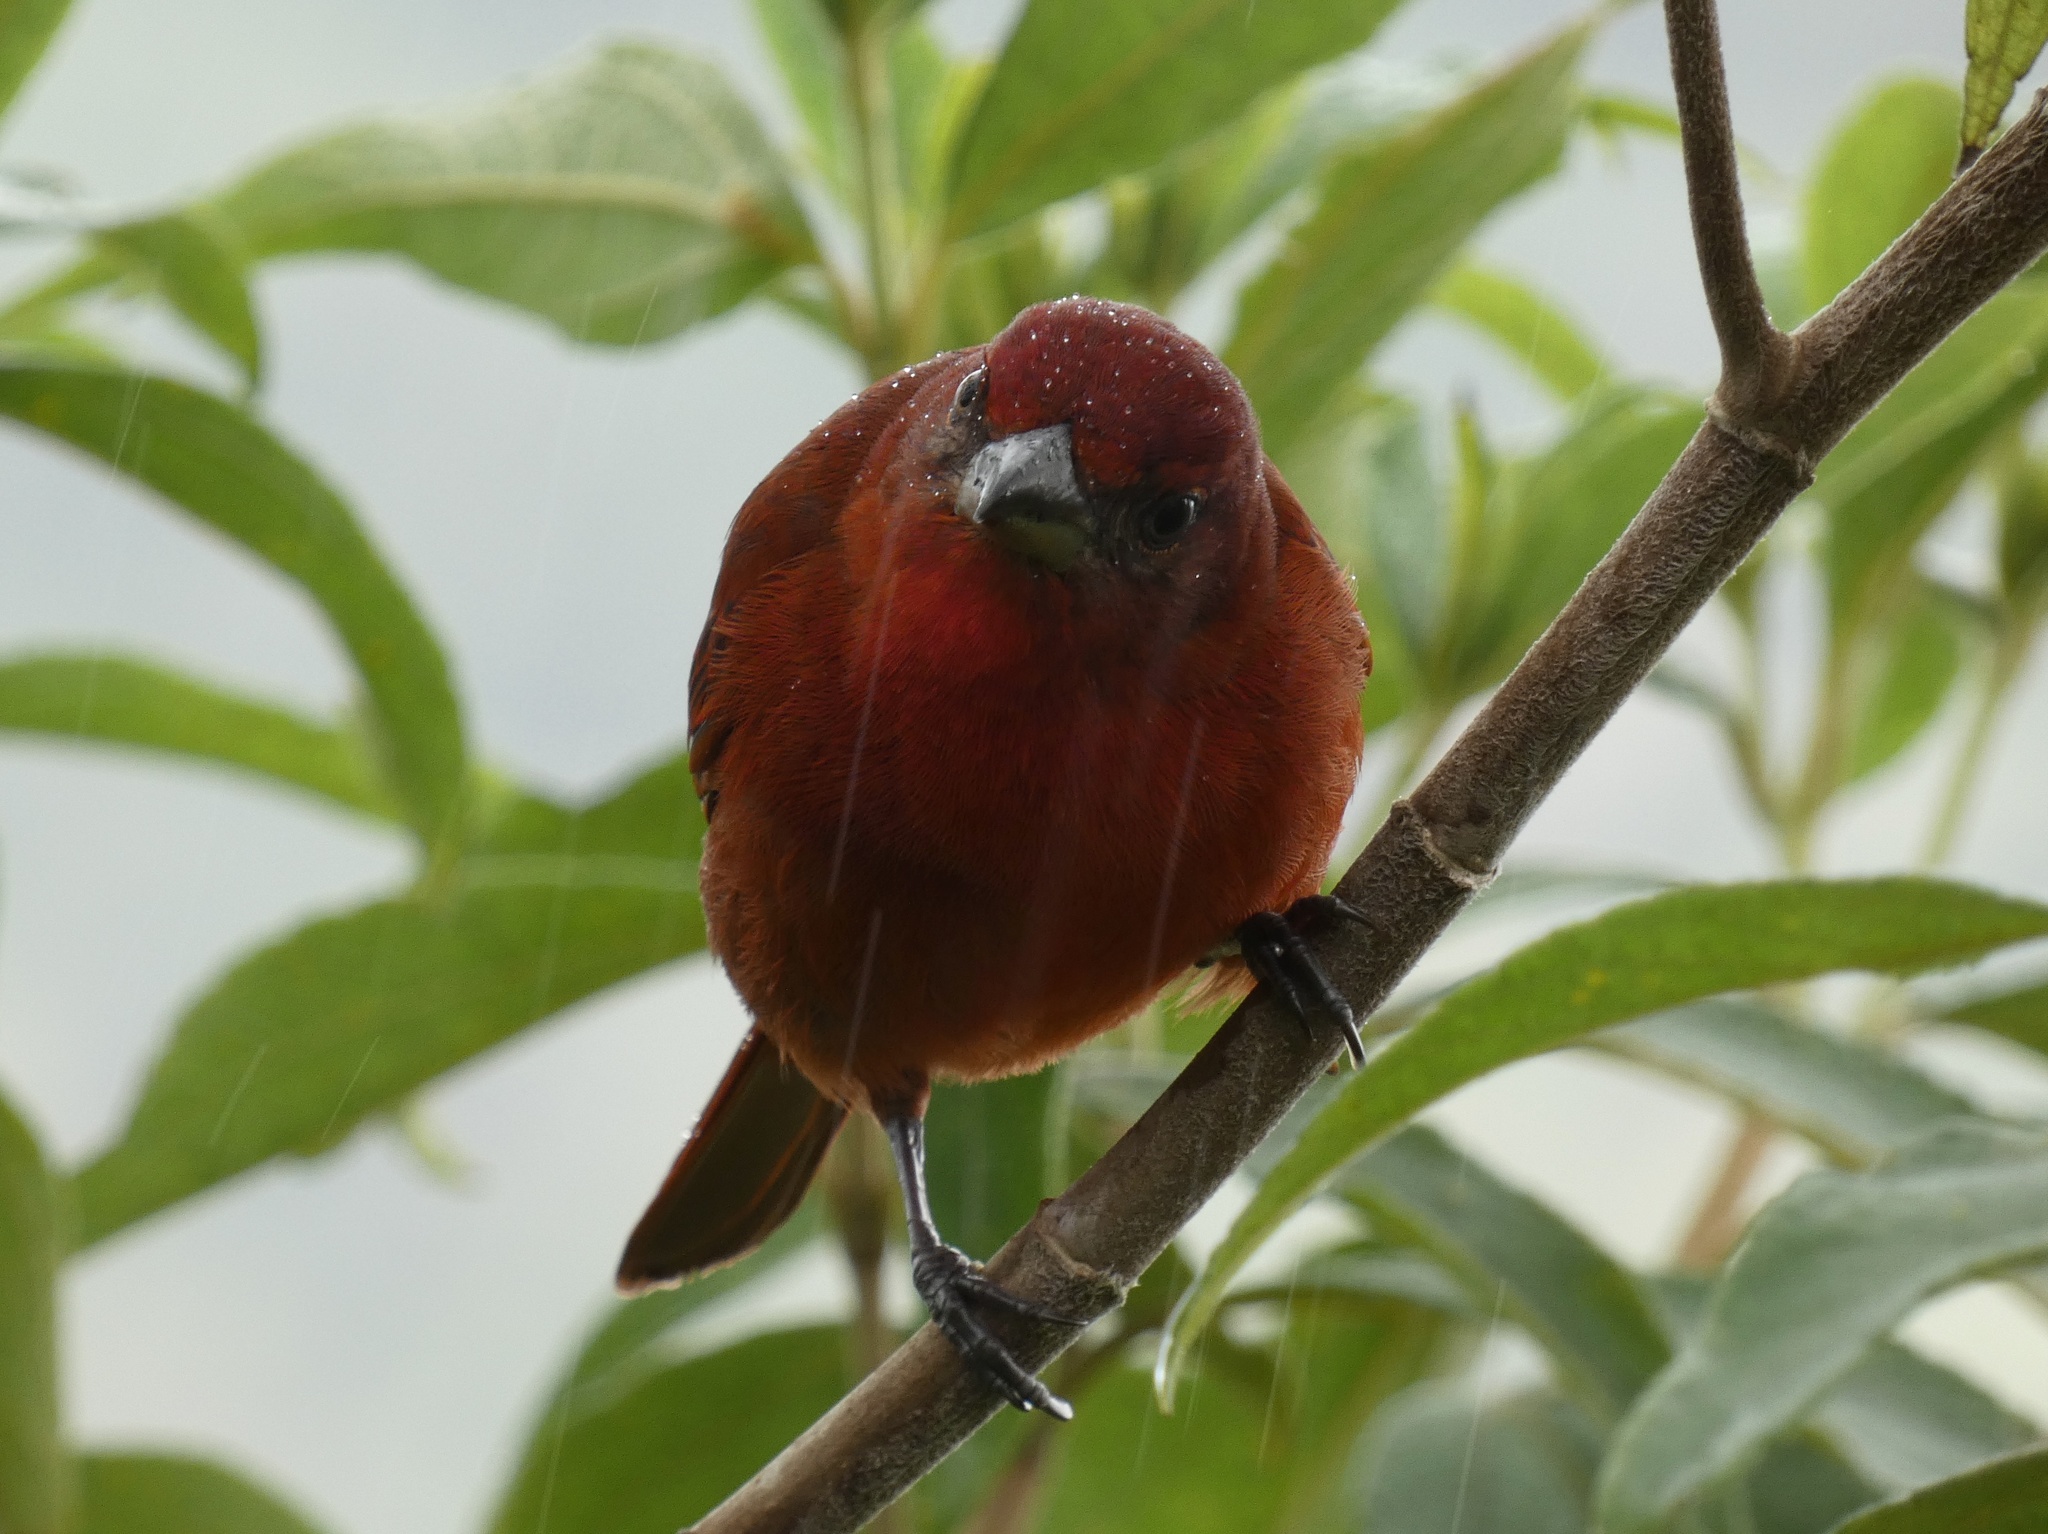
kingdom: Animalia
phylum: Chordata
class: Aves
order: Passeriformes
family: Cardinalidae
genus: Piranga
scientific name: Piranga flava
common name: Red tanager
